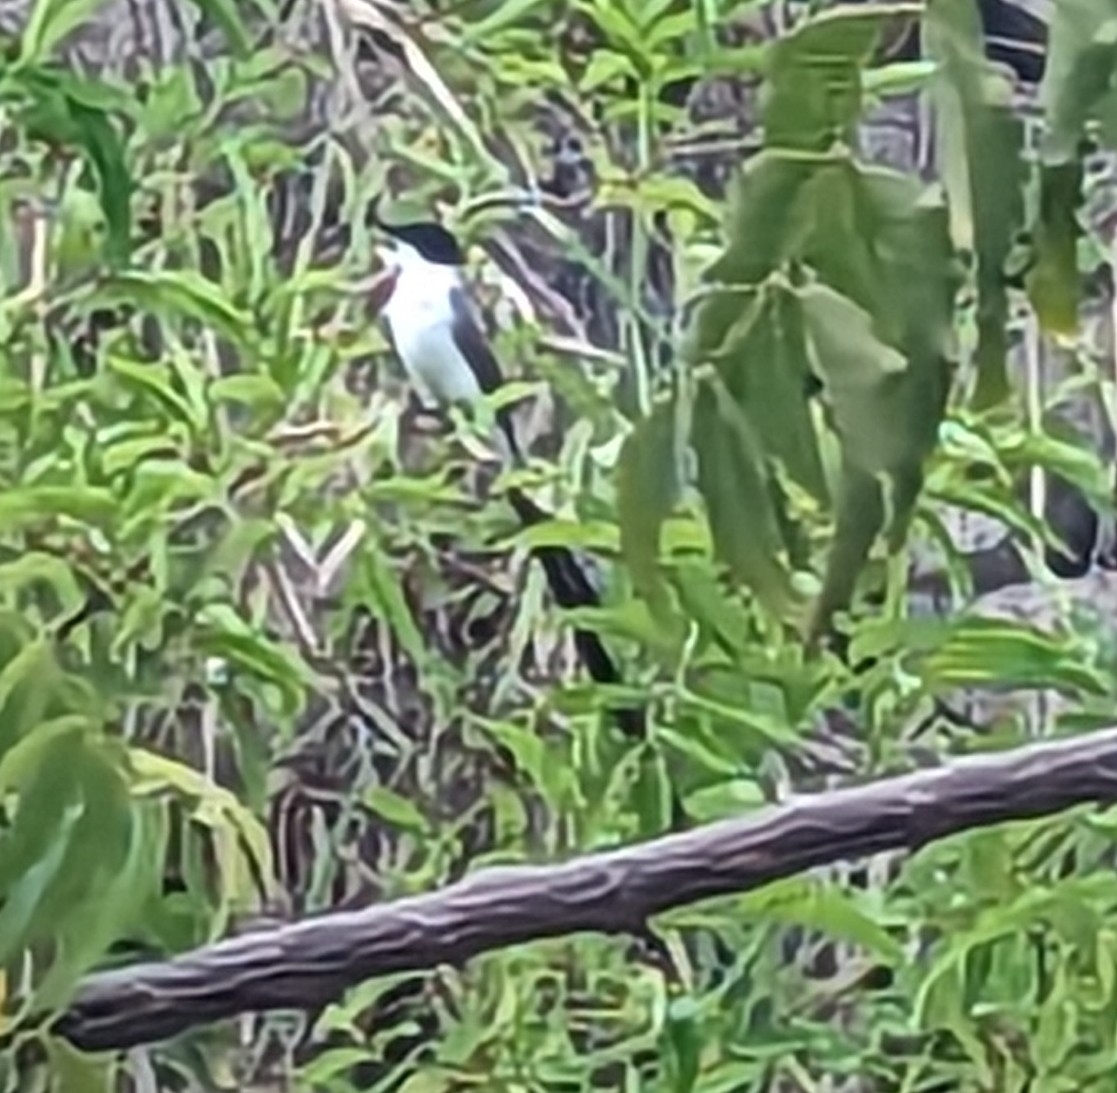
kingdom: Animalia
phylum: Chordata
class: Aves
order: Passeriformes
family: Tyrannidae
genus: Tyrannus
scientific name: Tyrannus savana
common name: Fork-tailed flycatcher
